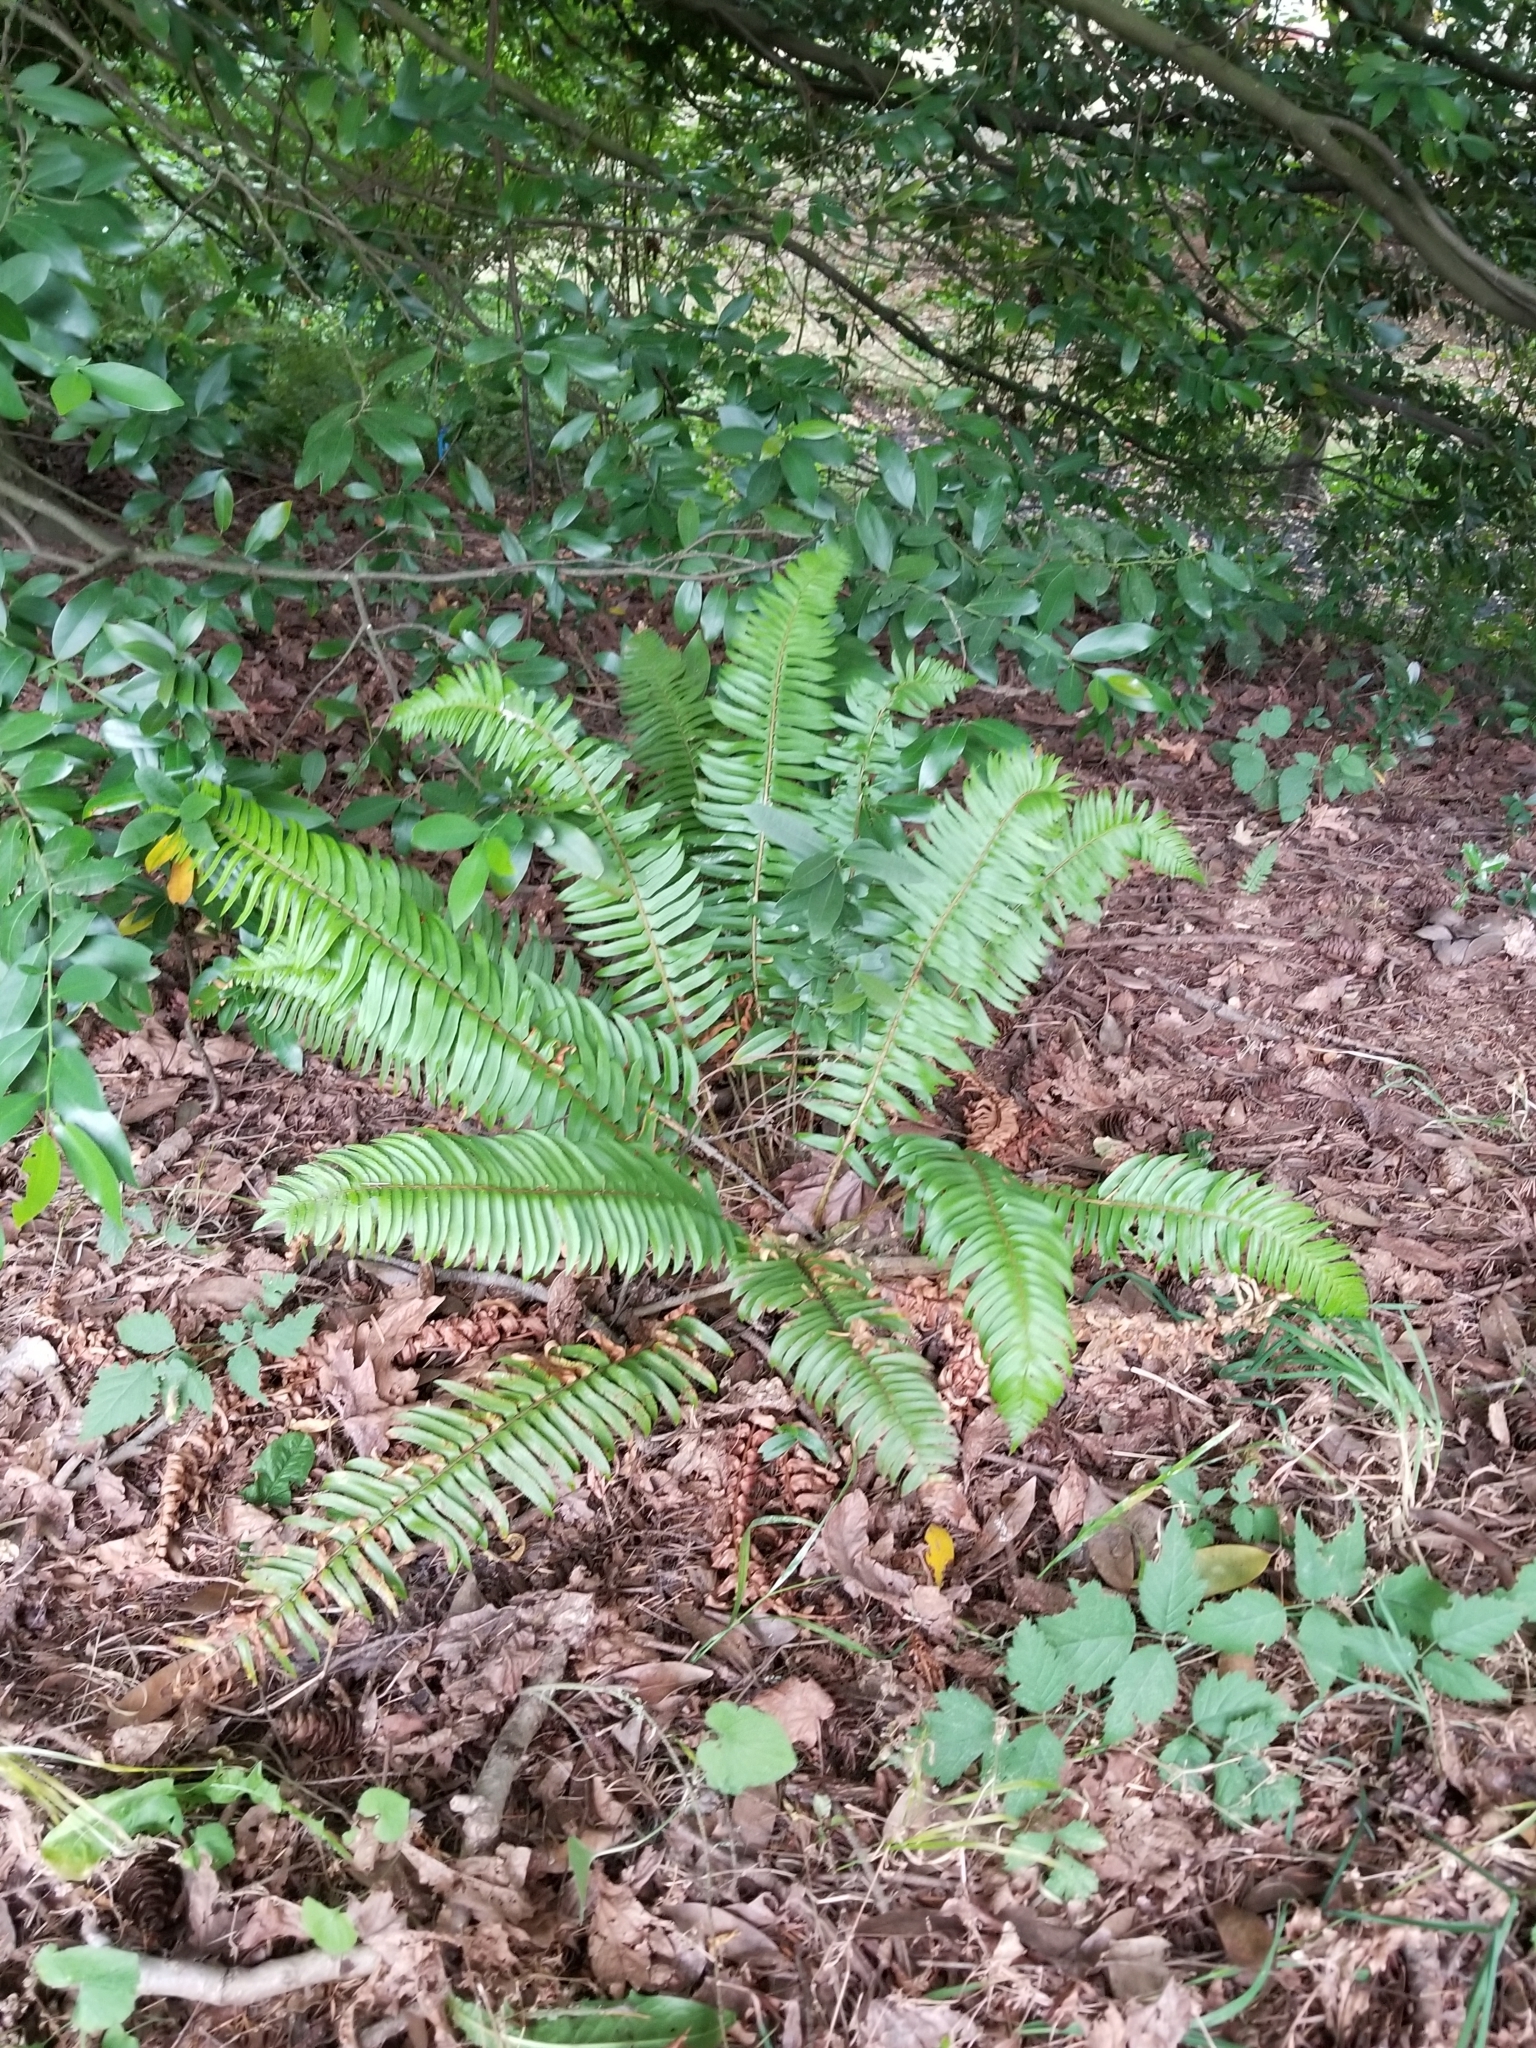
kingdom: Plantae
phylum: Tracheophyta
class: Polypodiopsida
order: Polypodiales
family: Dryopteridaceae
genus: Polystichum
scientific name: Polystichum munitum
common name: Western sword-fern
